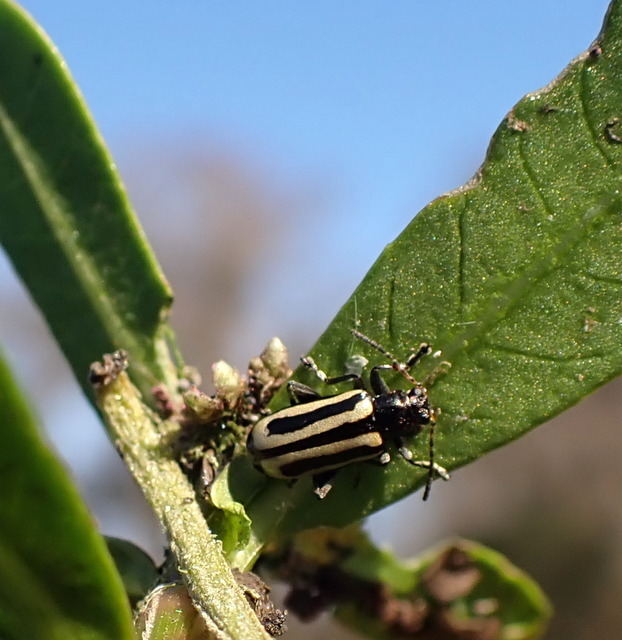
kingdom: Animalia
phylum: Arthropoda
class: Insecta
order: Coleoptera
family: Chrysomelidae
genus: Agasicles
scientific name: Agasicles hygrophila
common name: Alligatorweed flea beetle
